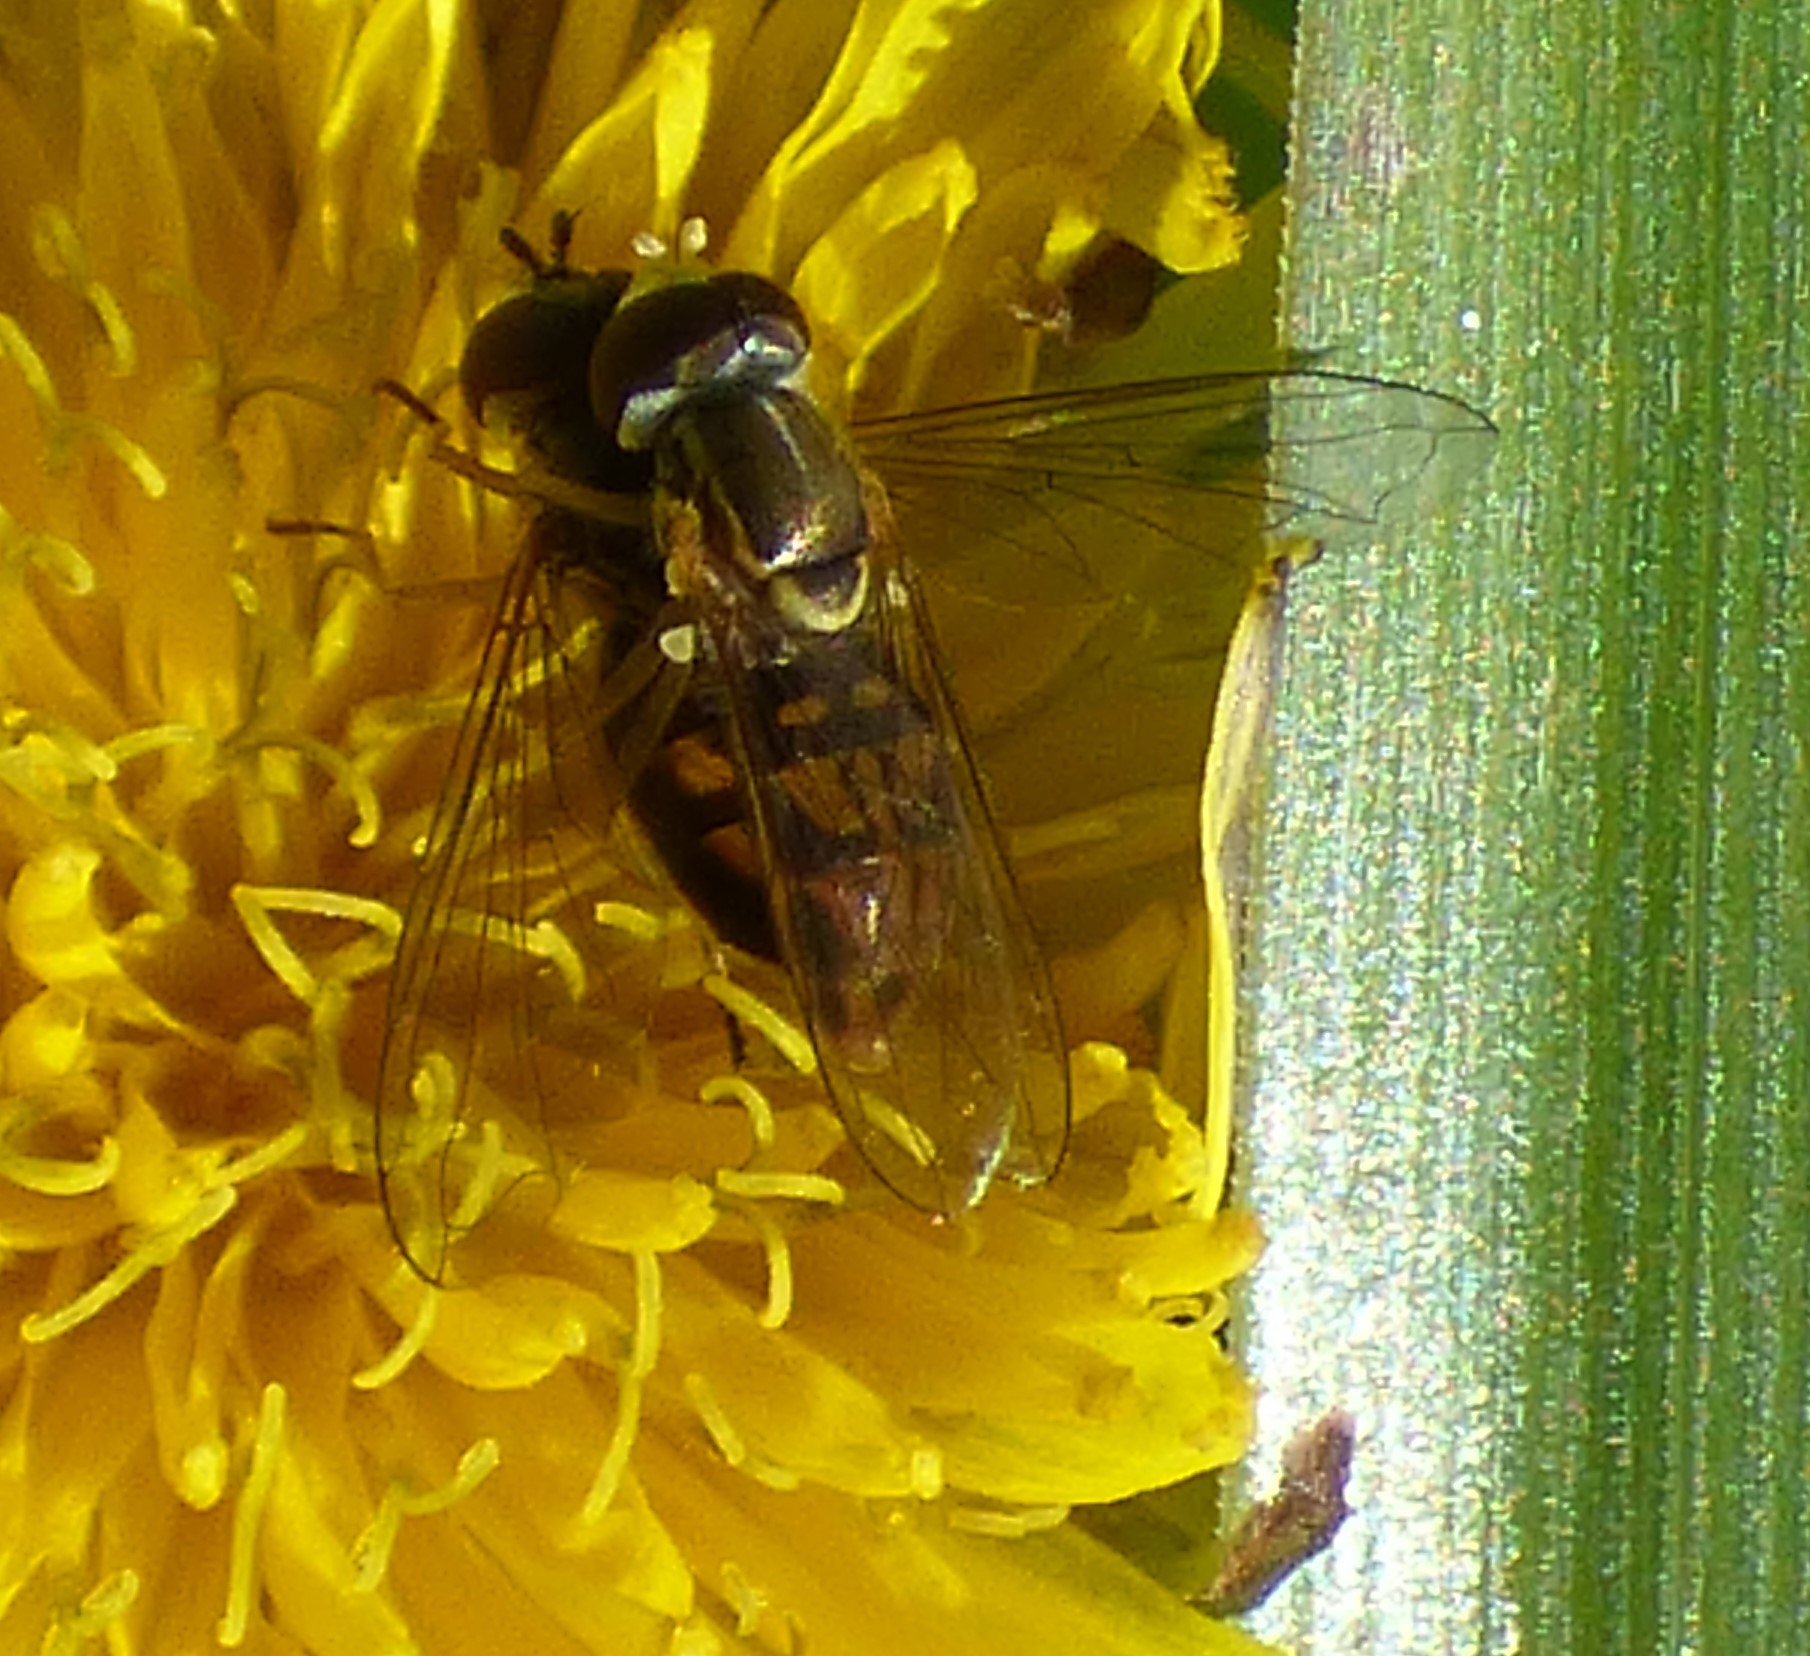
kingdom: Animalia
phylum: Arthropoda
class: Insecta
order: Diptera
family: Syrphidae
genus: Toxomerus
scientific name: Toxomerus marginatus
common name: Syrphid fly
